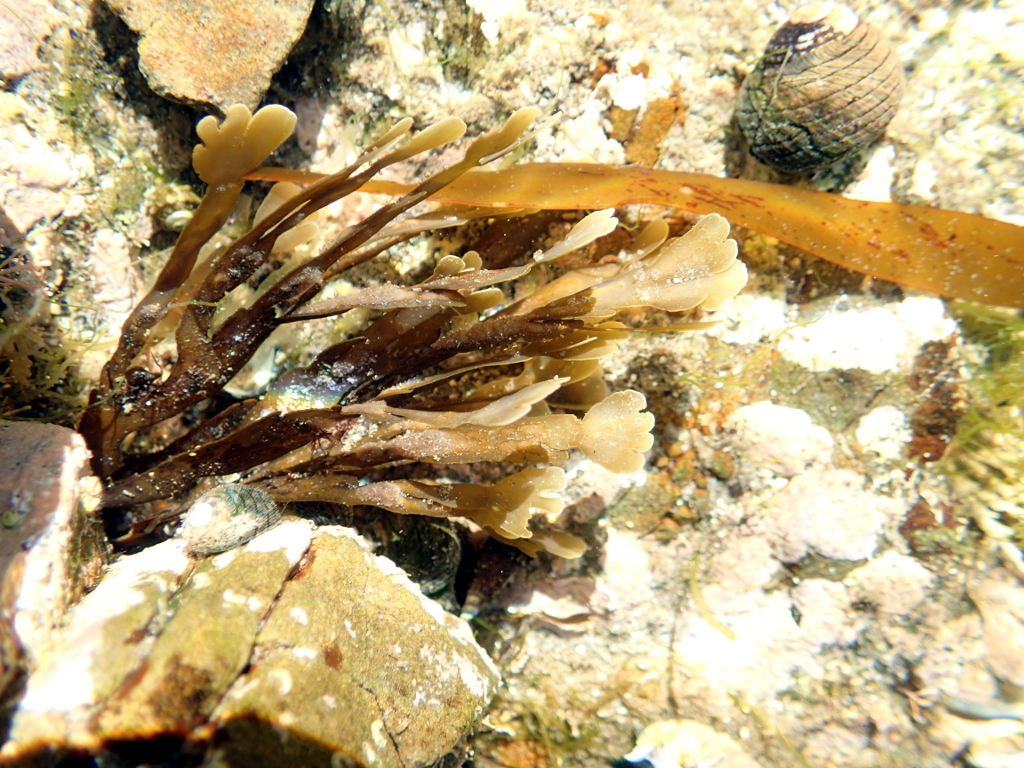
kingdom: Chromista
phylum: Ochrophyta
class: Phaeophyceae
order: Dictyotales
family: Dictyotaceae
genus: Zonaria
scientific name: Zonaria turneriana
